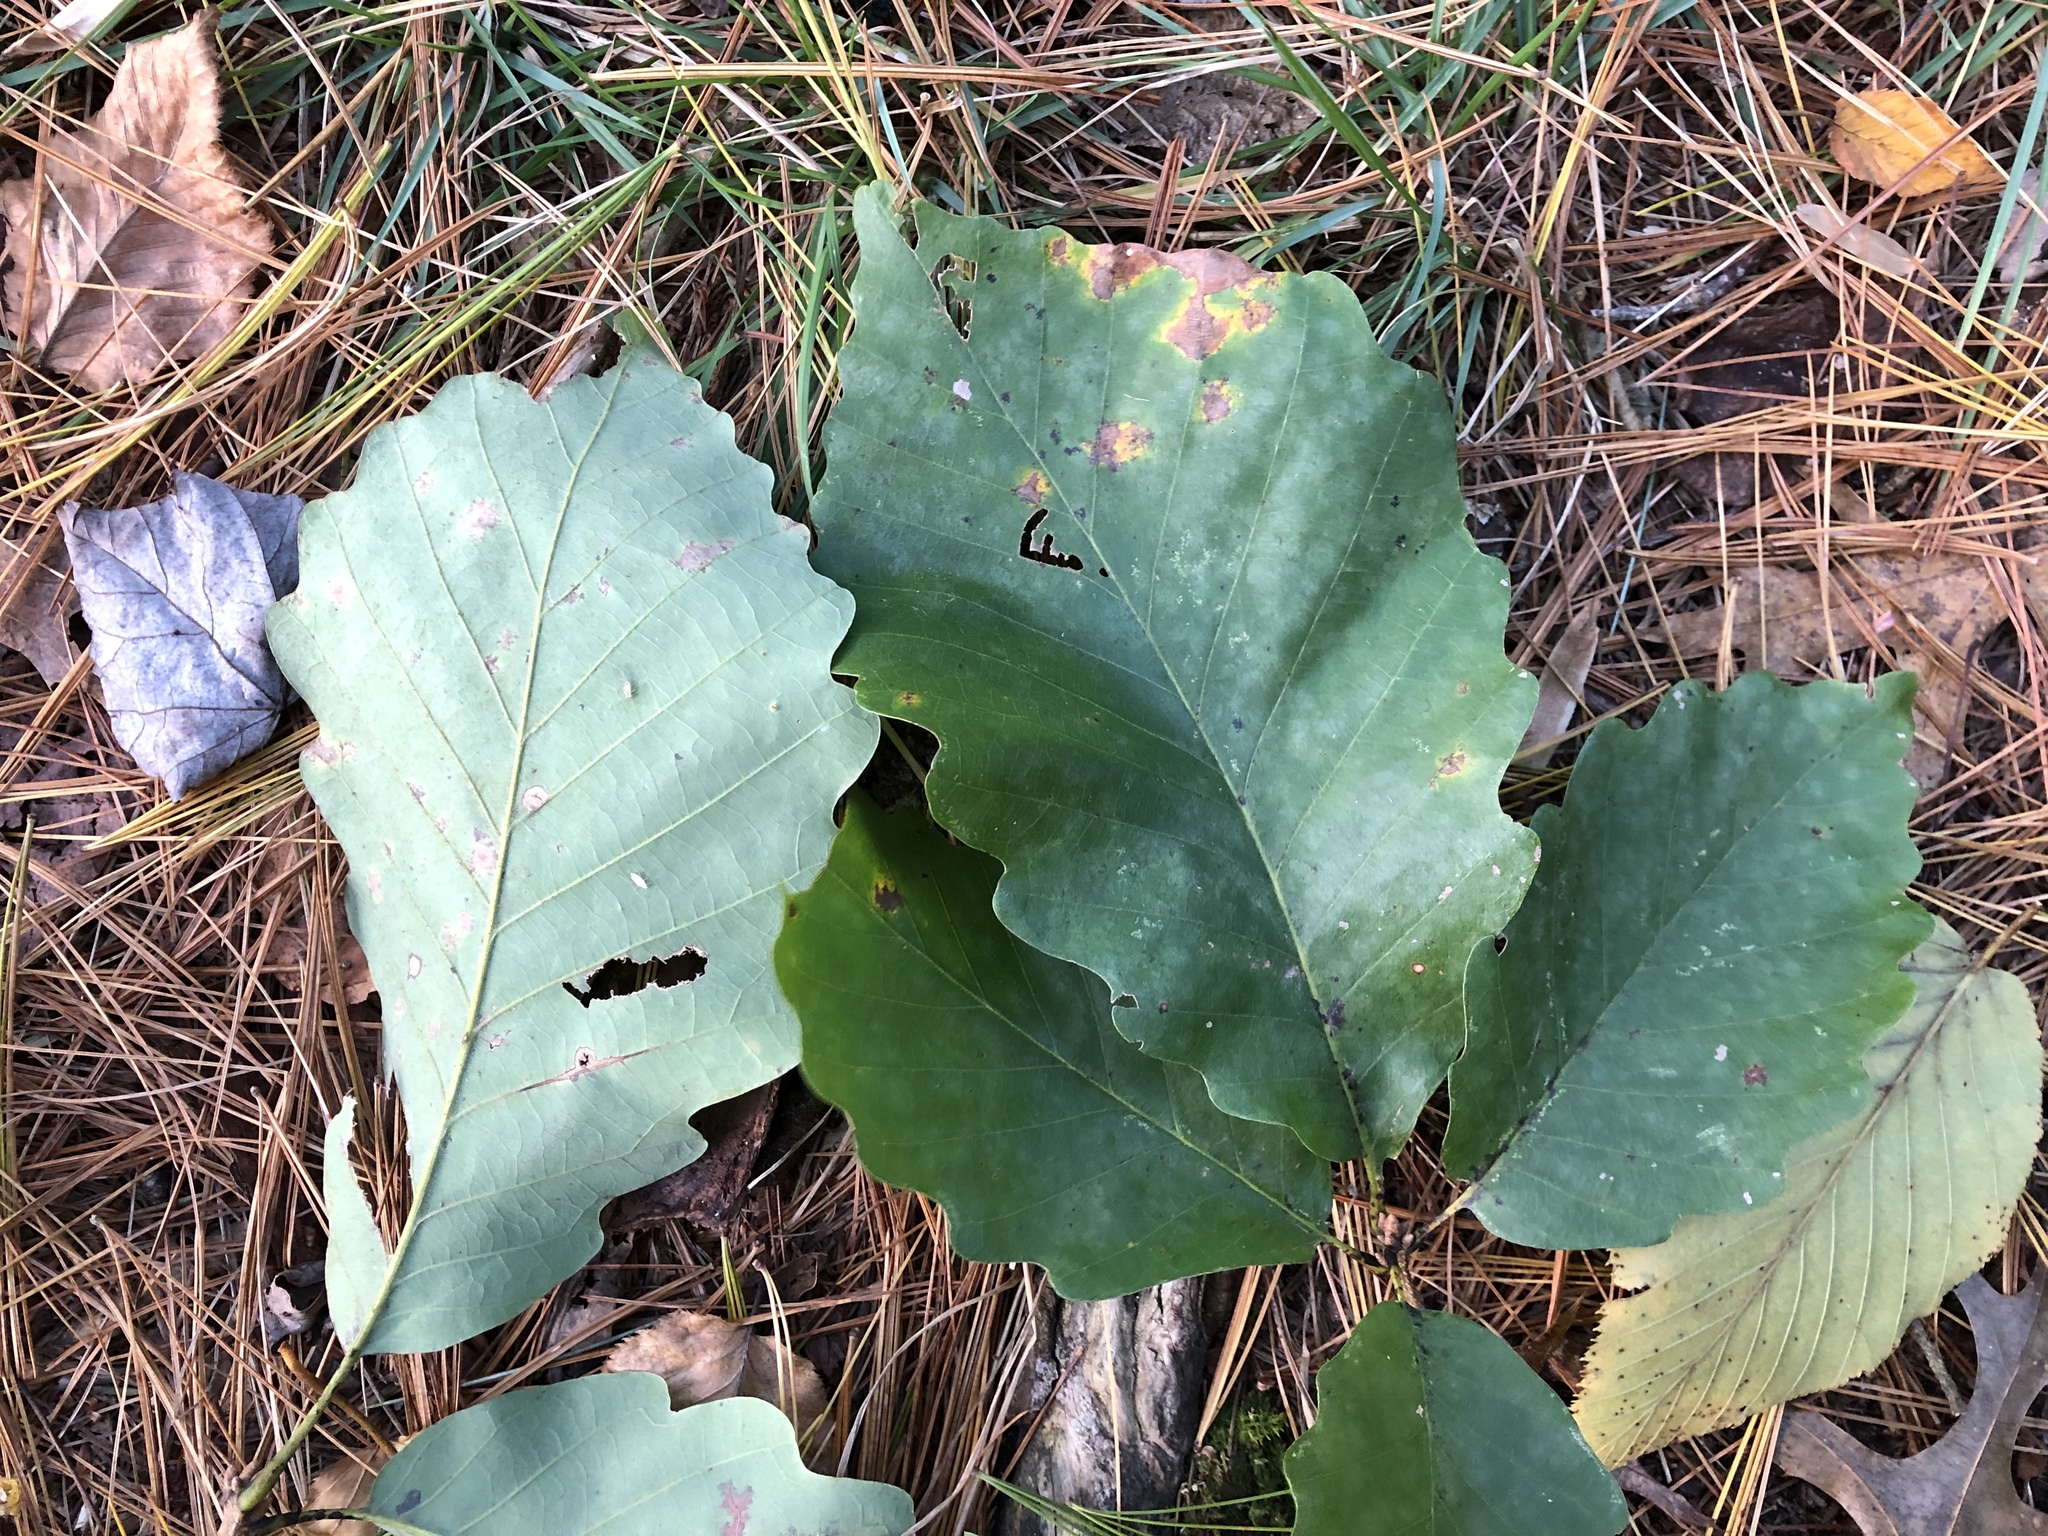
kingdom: Plantae
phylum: Tracheophyta
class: Magnoliopsida
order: Fagales
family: Fagaceae
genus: Quercus
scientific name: Quercus montana
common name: Chestnut oak
